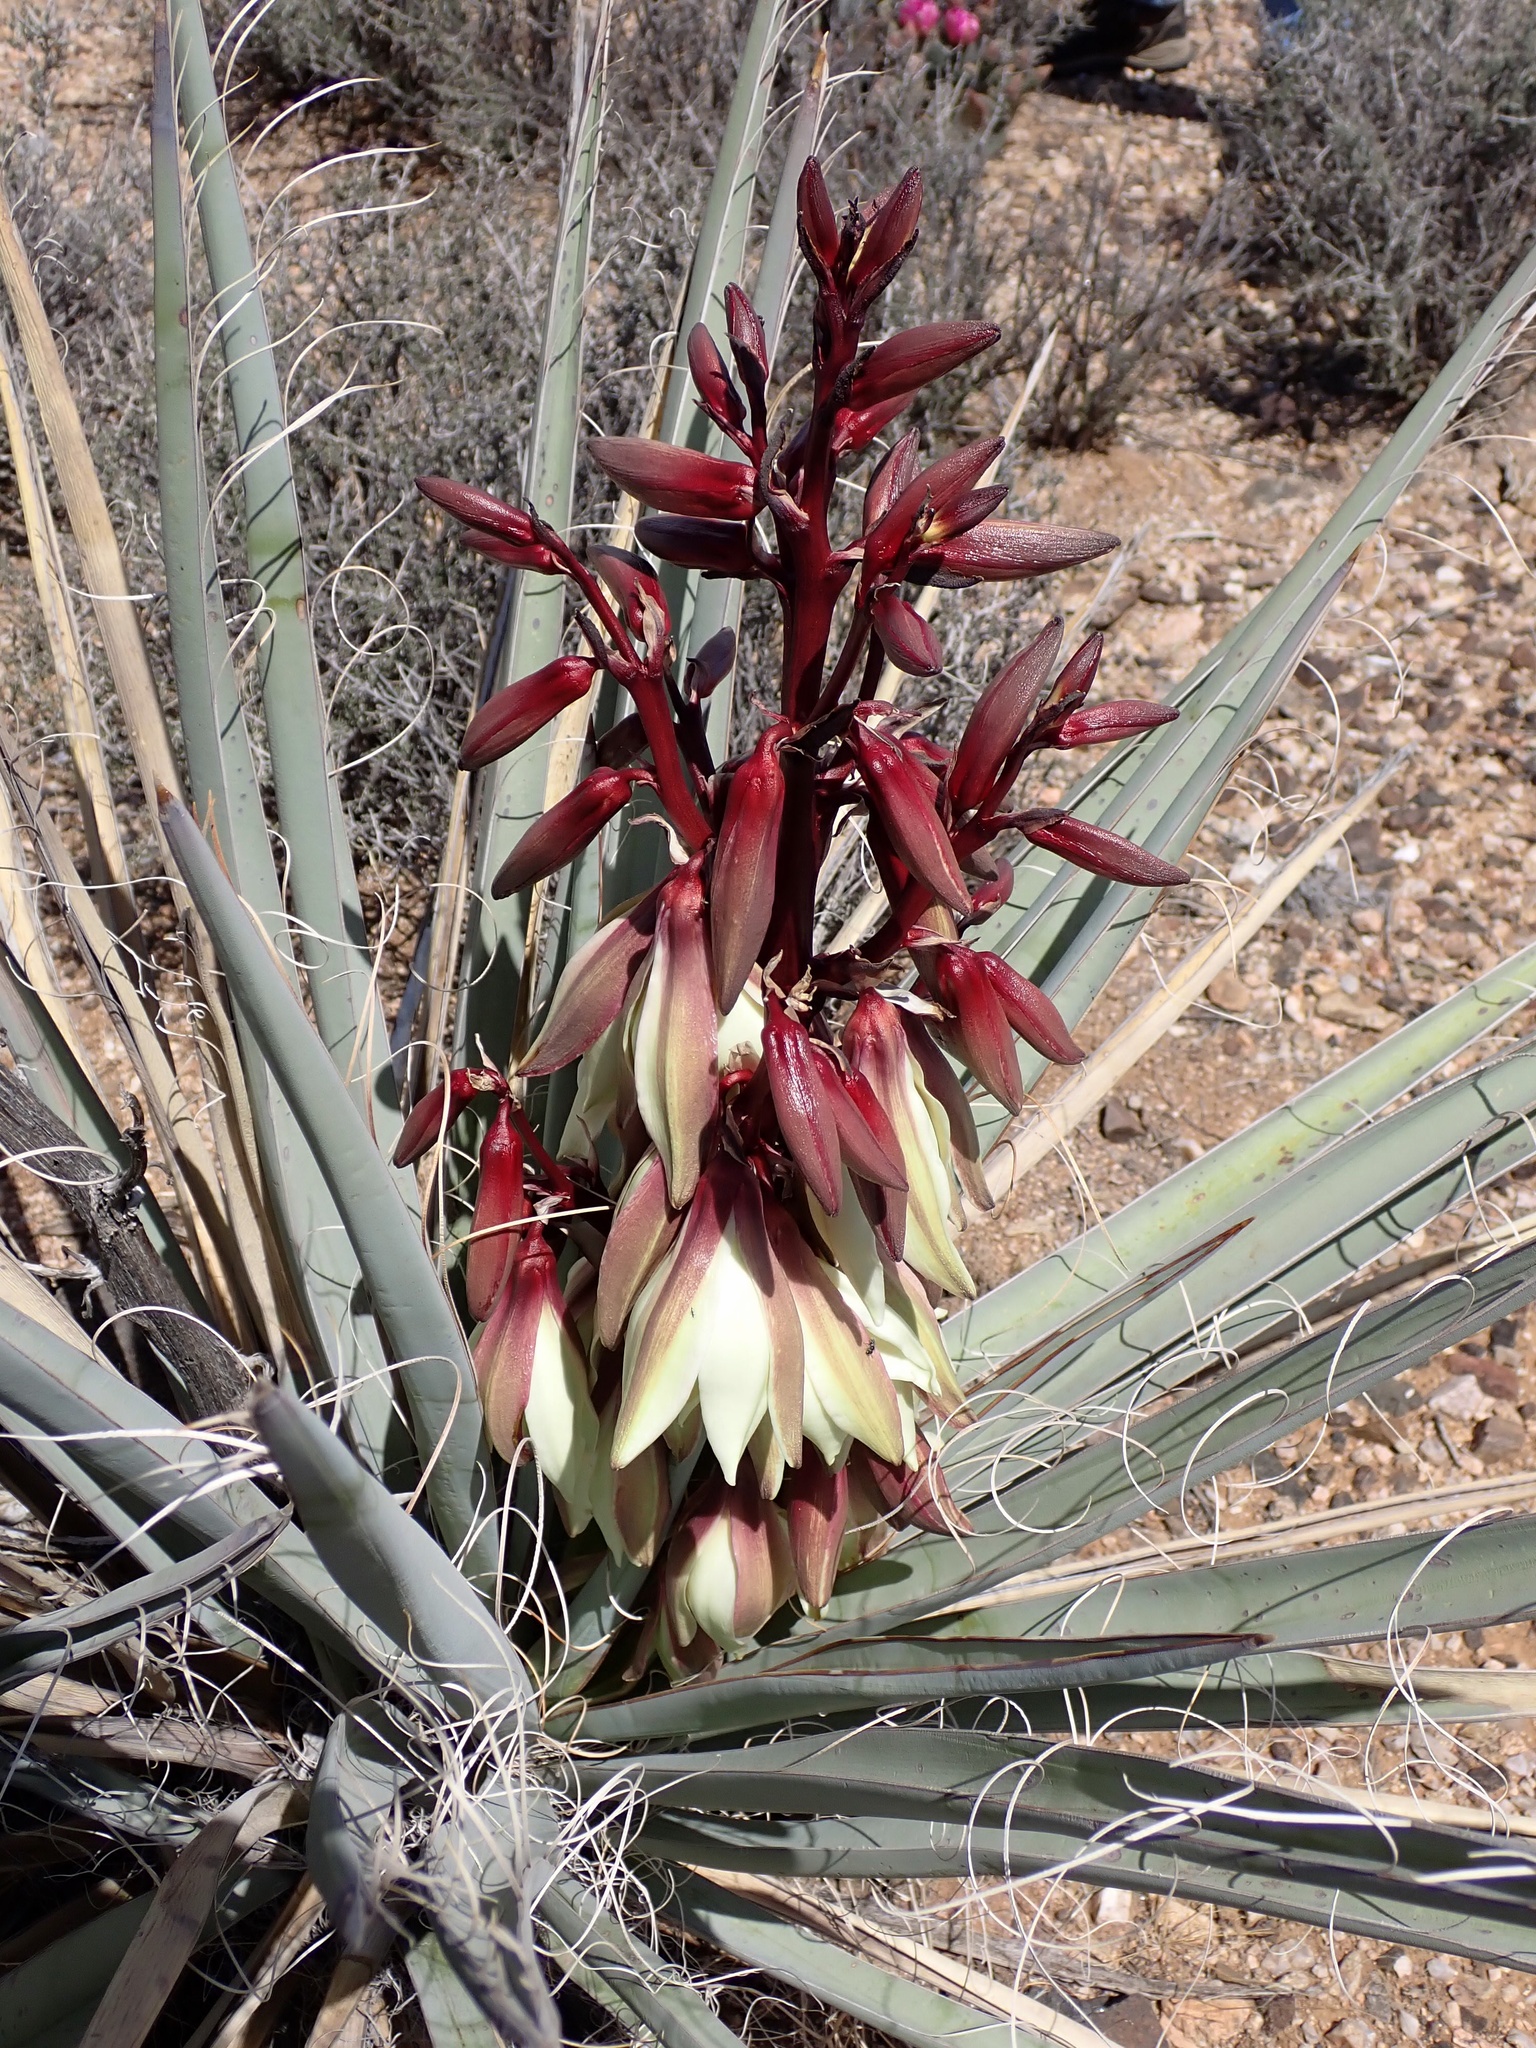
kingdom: Plantae
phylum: Tracheophyta
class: Liliopsida
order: Asparagales
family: Asparagaceae
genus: Yucca
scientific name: Yucca baccata
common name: Banana yucca
